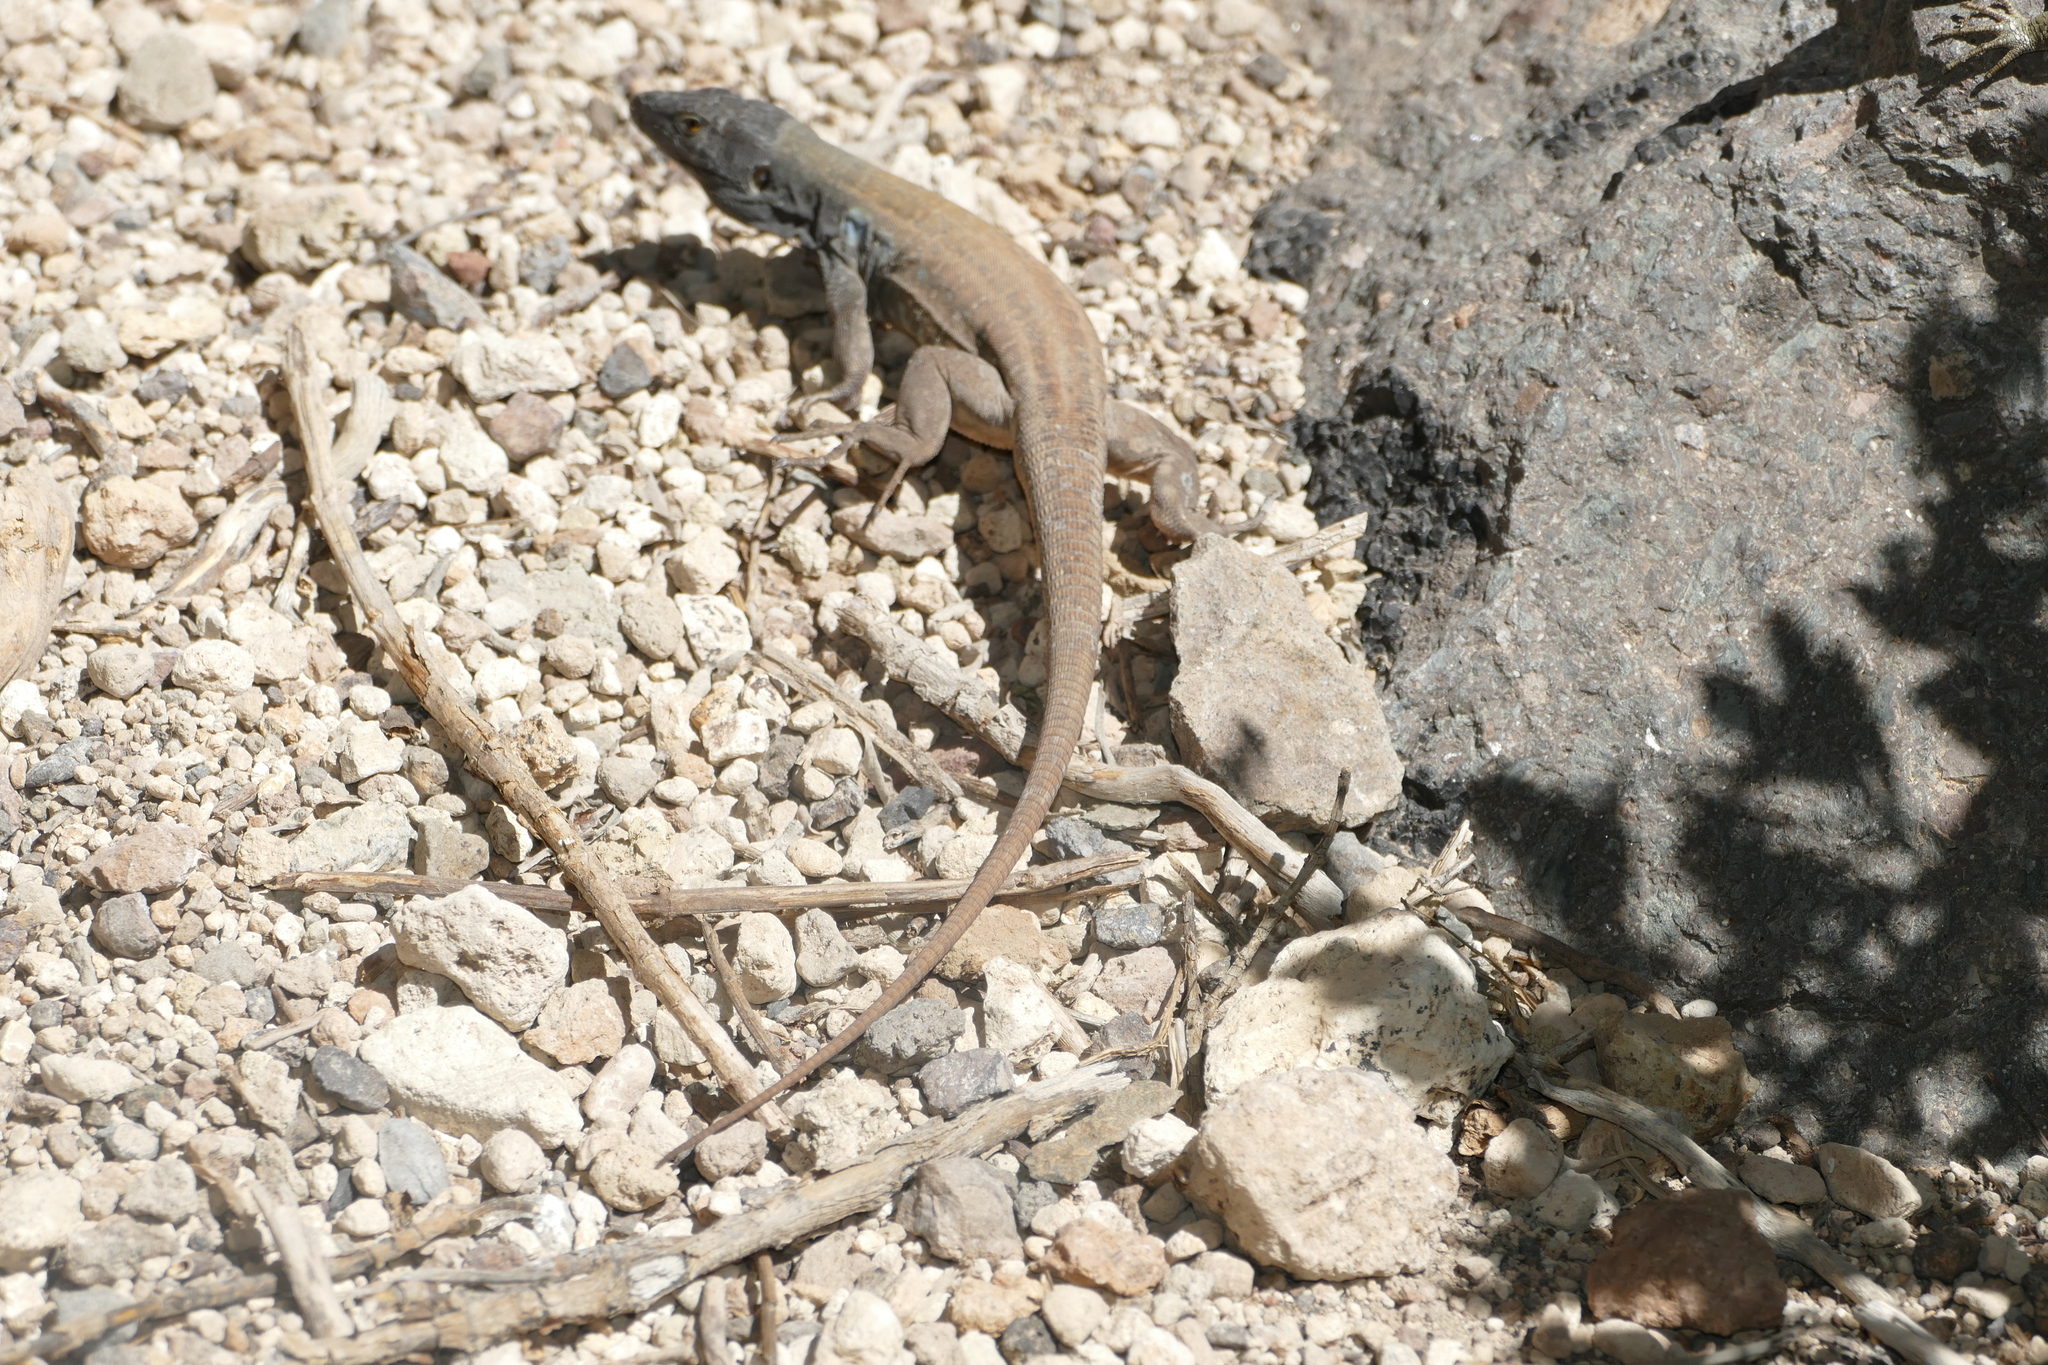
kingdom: Animalia
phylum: Chordata
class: Squamata
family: Lacertidae
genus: Gallotia
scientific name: Gallotia galloti
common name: Gallot's lizard
